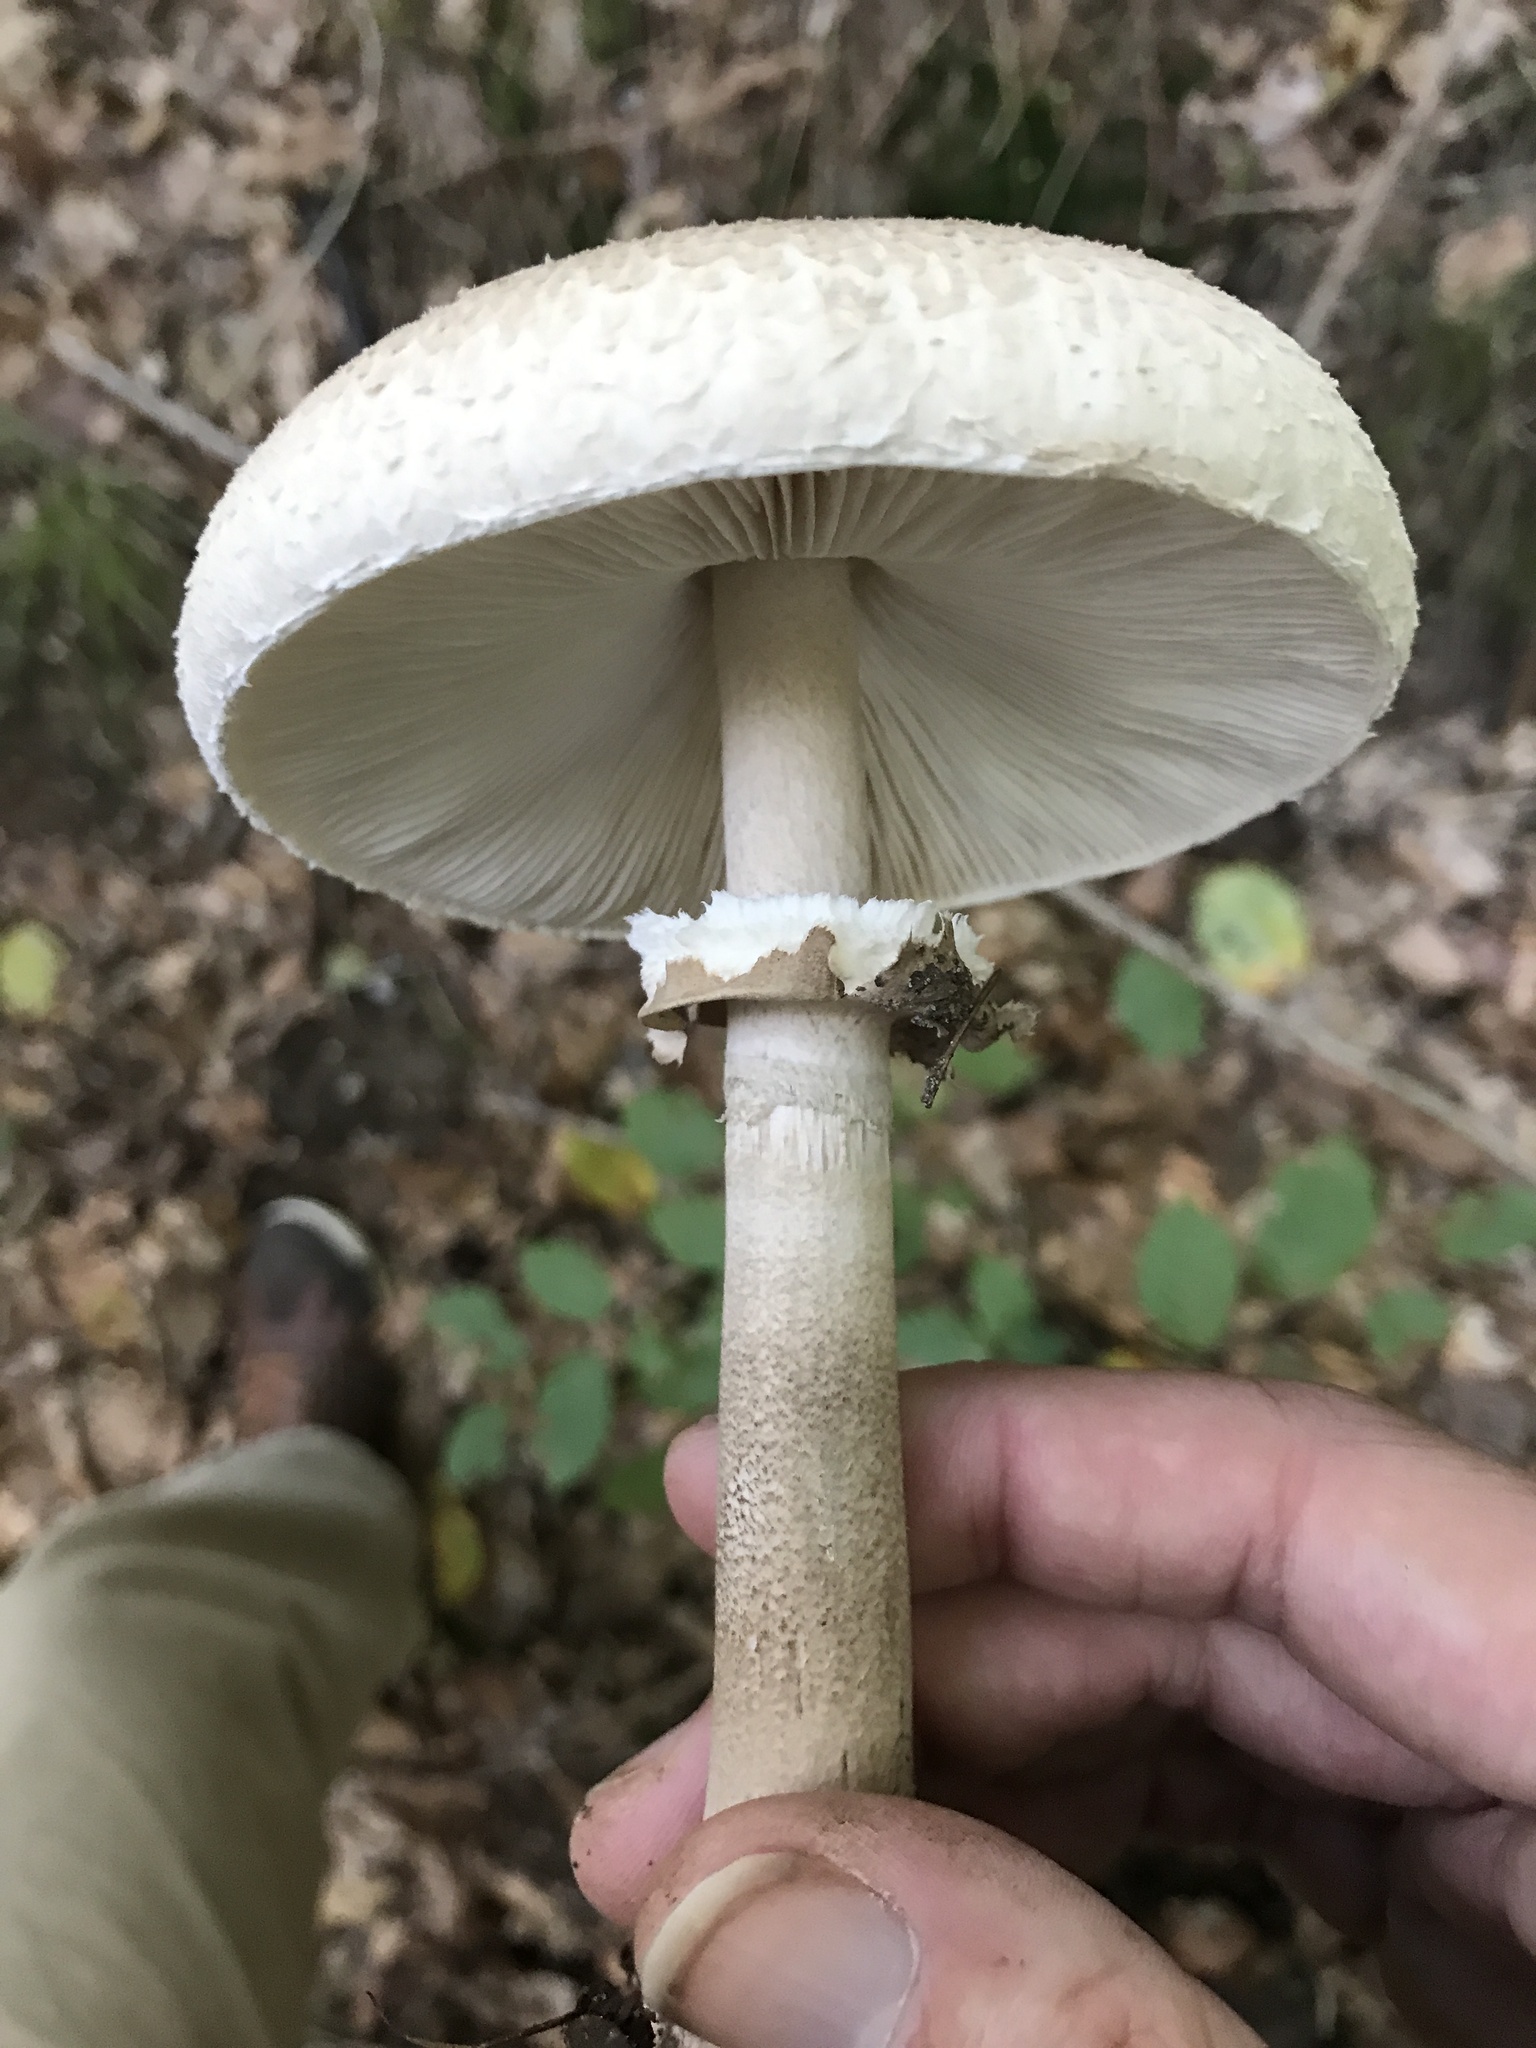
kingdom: Fungi
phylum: Basidiomycota
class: Agaricomycetes
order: Agaricales
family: Agaricaceae
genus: Macrolepiota
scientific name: Macrolepiota procera
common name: Parasol
